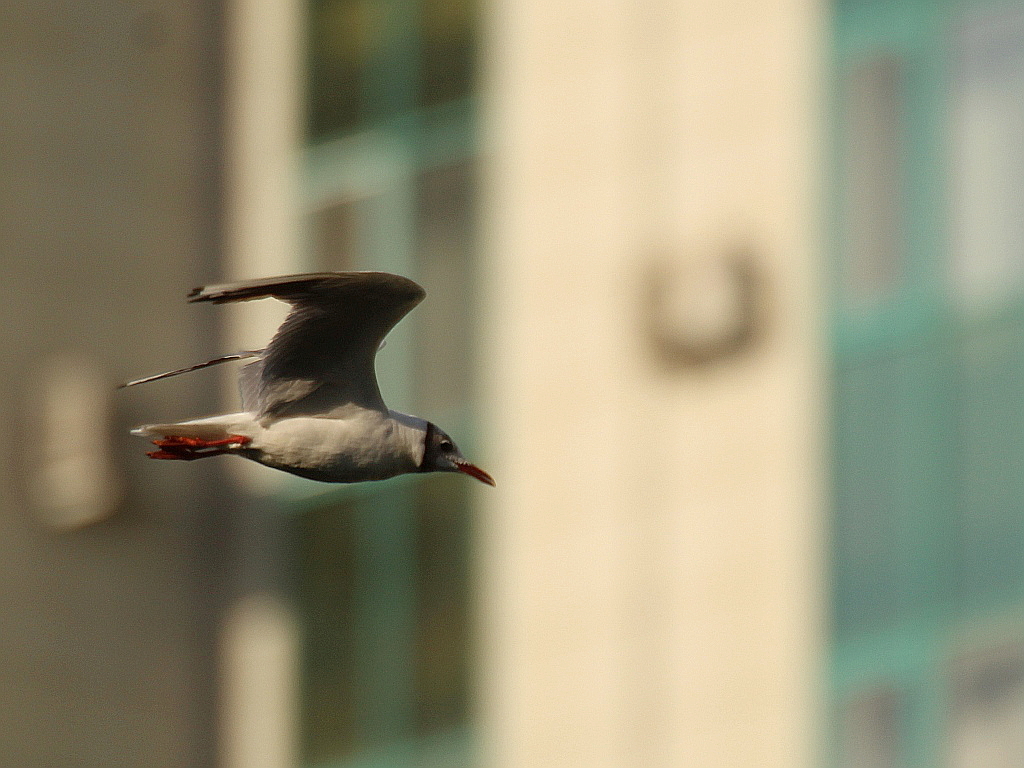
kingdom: Animalia
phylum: Chordata
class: Aves
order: Charadriiformes
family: Laridae
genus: Chroicocephalus
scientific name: Chroicocephalus ridibundus
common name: Black-headed gull
